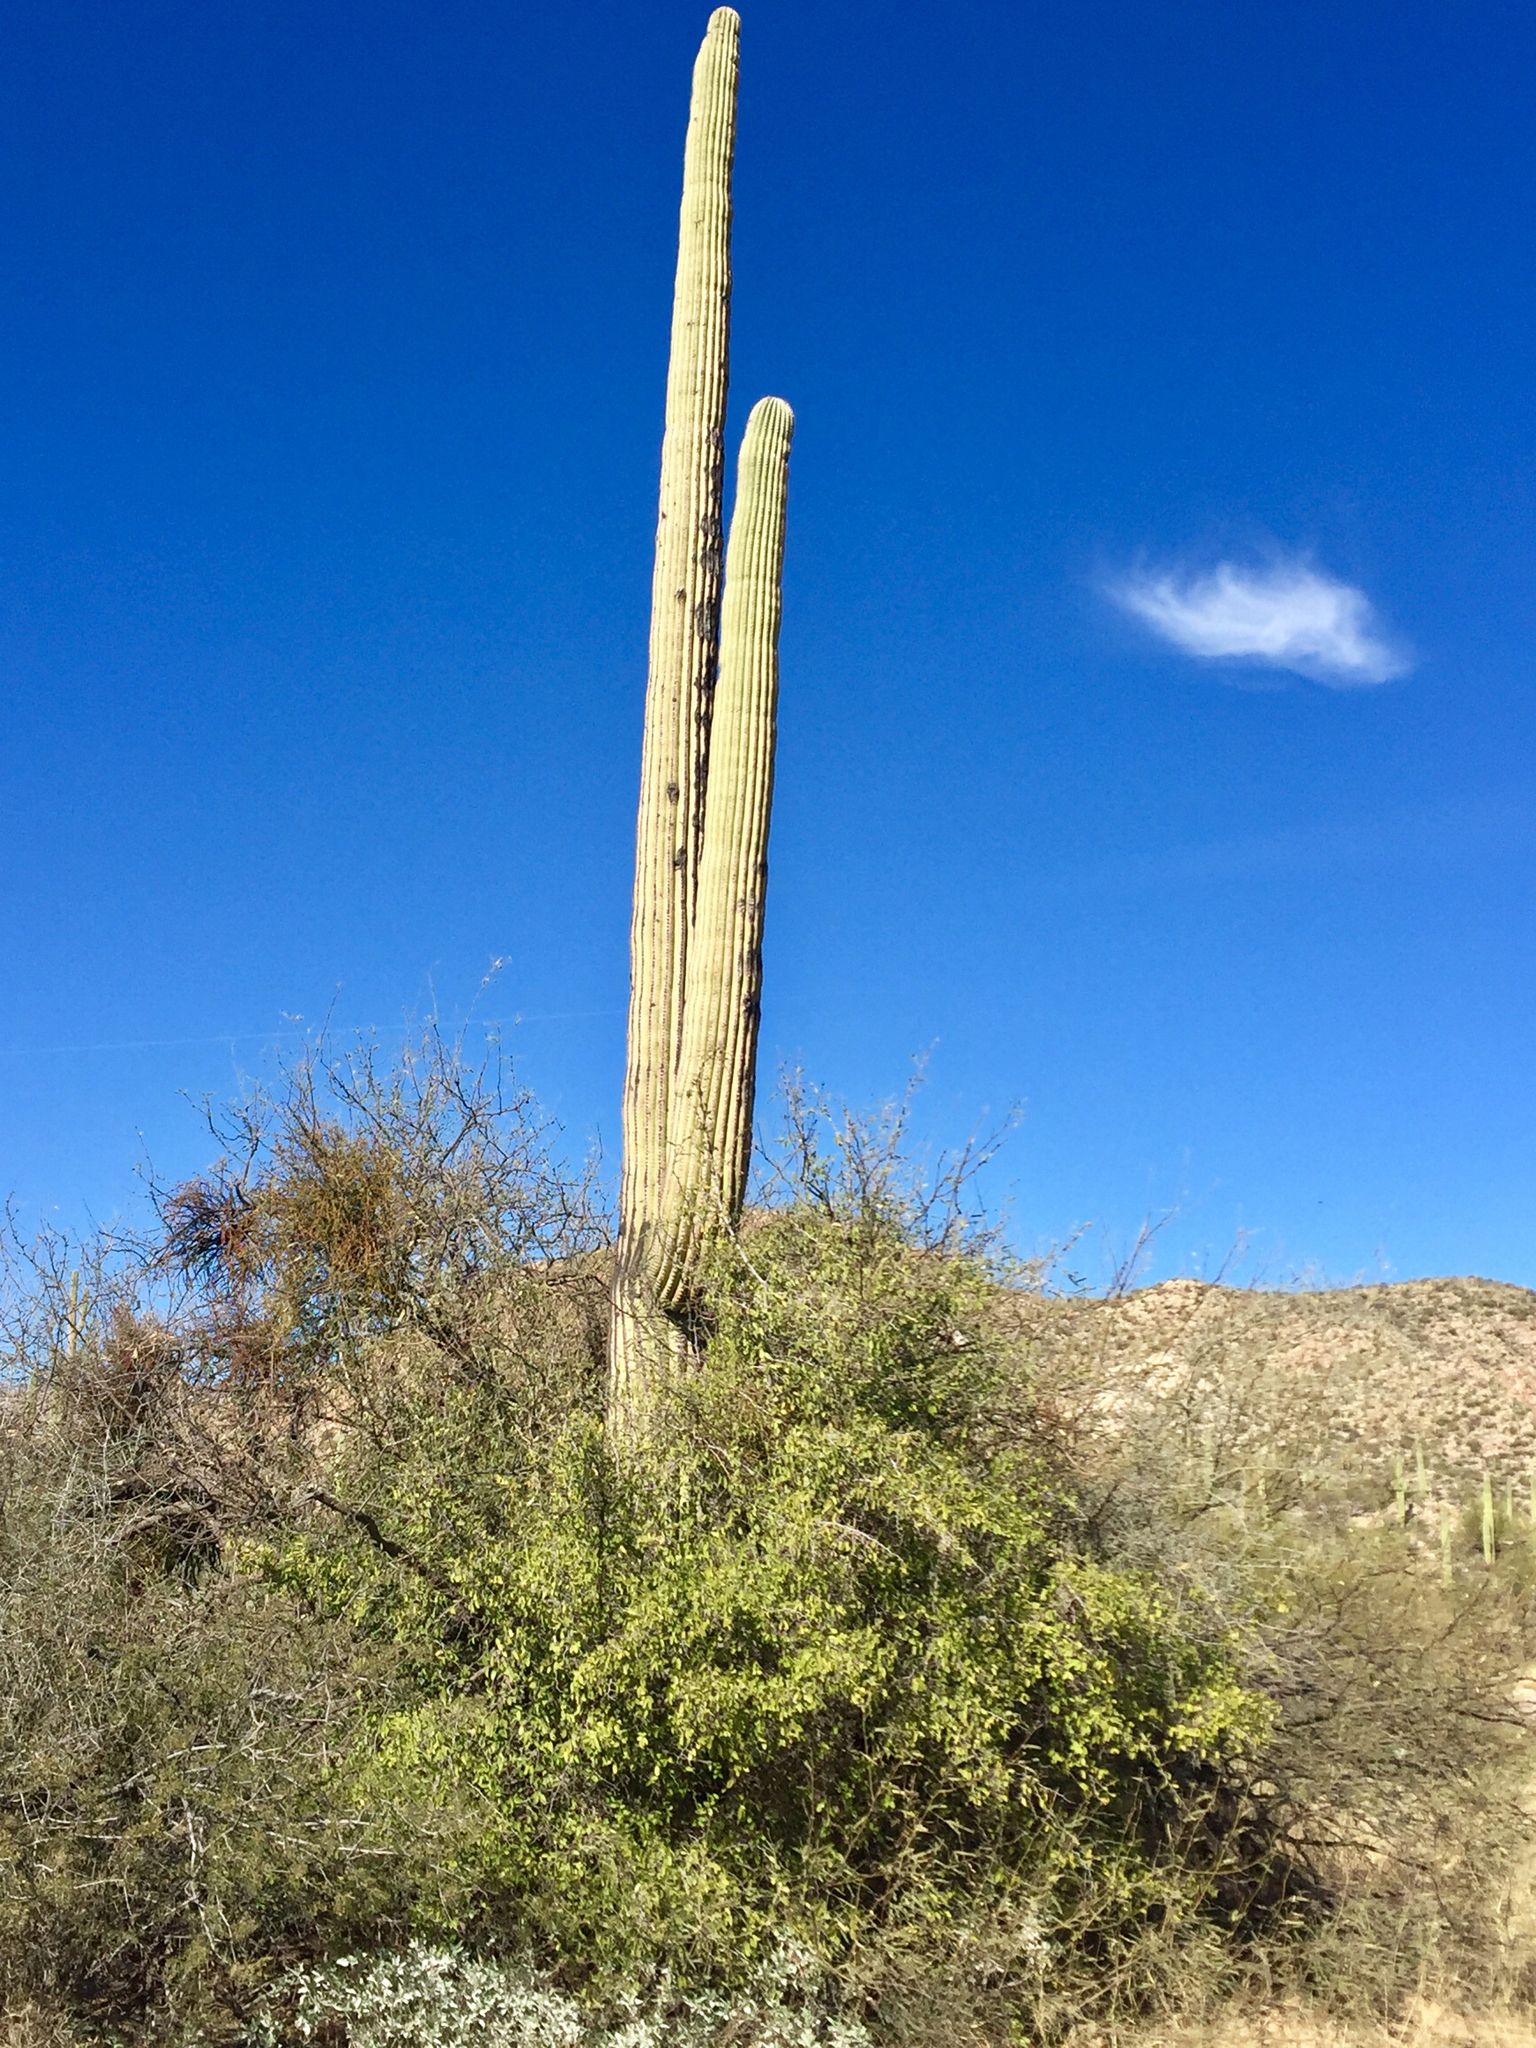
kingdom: Plantae
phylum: Tracheophyta
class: Magnoliopsida
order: Caryophyllales
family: Cactaceae
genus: Carnegiea
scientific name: Carnegiea gigantea
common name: Saguaro
